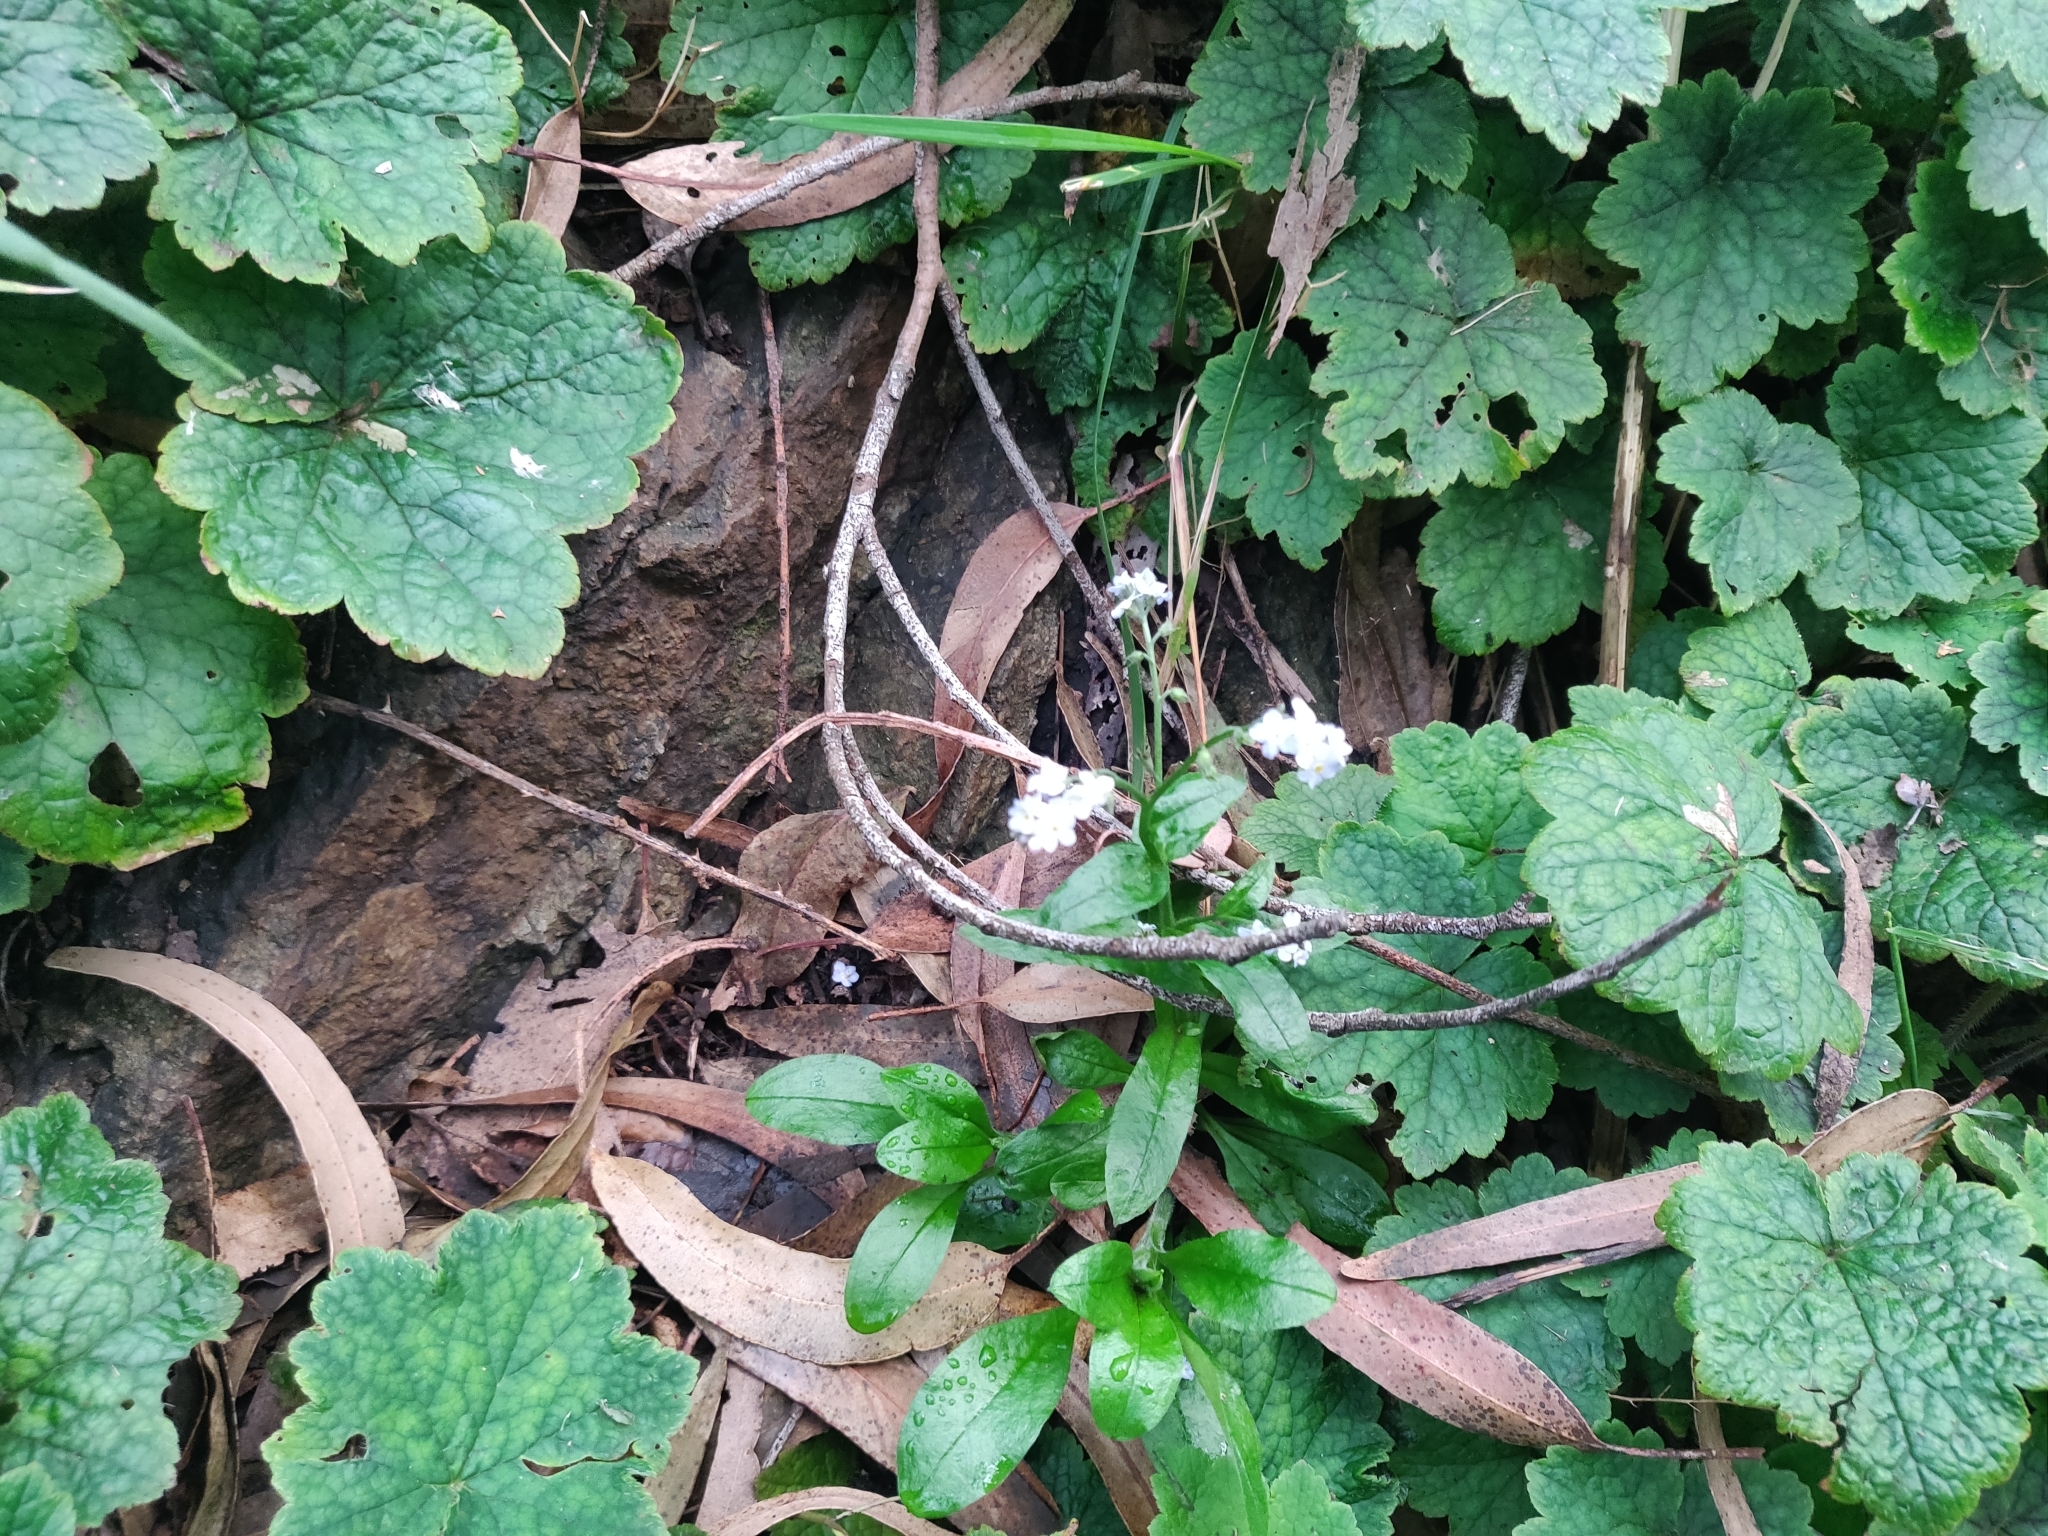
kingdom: Plantae
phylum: Tracheophyta
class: Magnoliopsida
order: Boraginales
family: Boraginaceae
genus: Myosotis
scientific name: Myosotis latifolia
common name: Broadleaf forget-me-not
